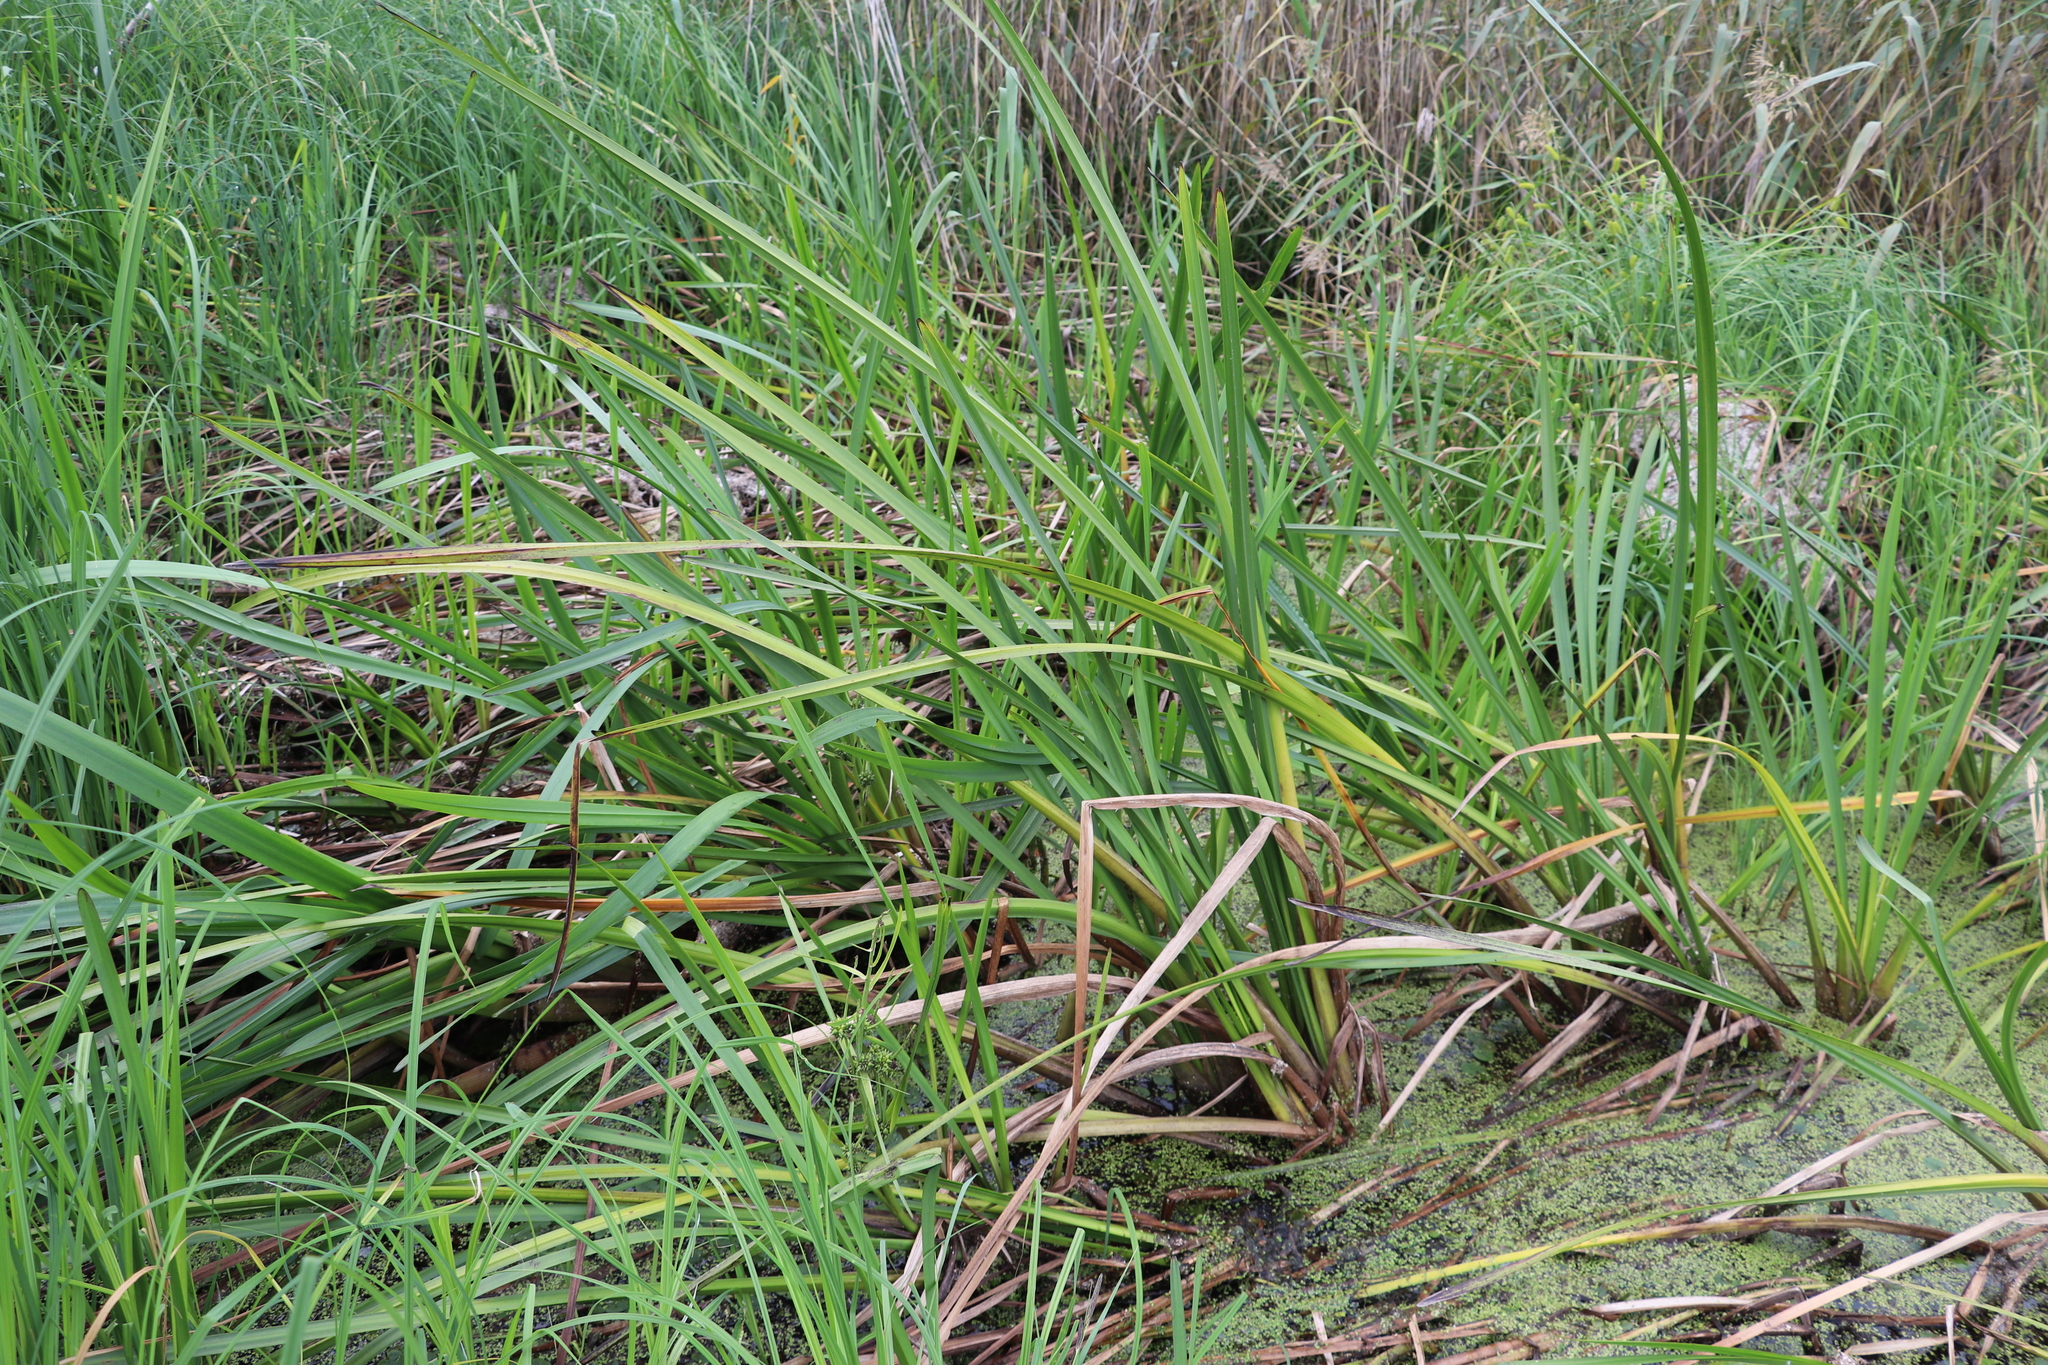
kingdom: Plantae
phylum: Tracheophyta
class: Liliopsida
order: Poales
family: Typhaceae
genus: Sparganium
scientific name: Sparganium erectum
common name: Branched bur-reed
